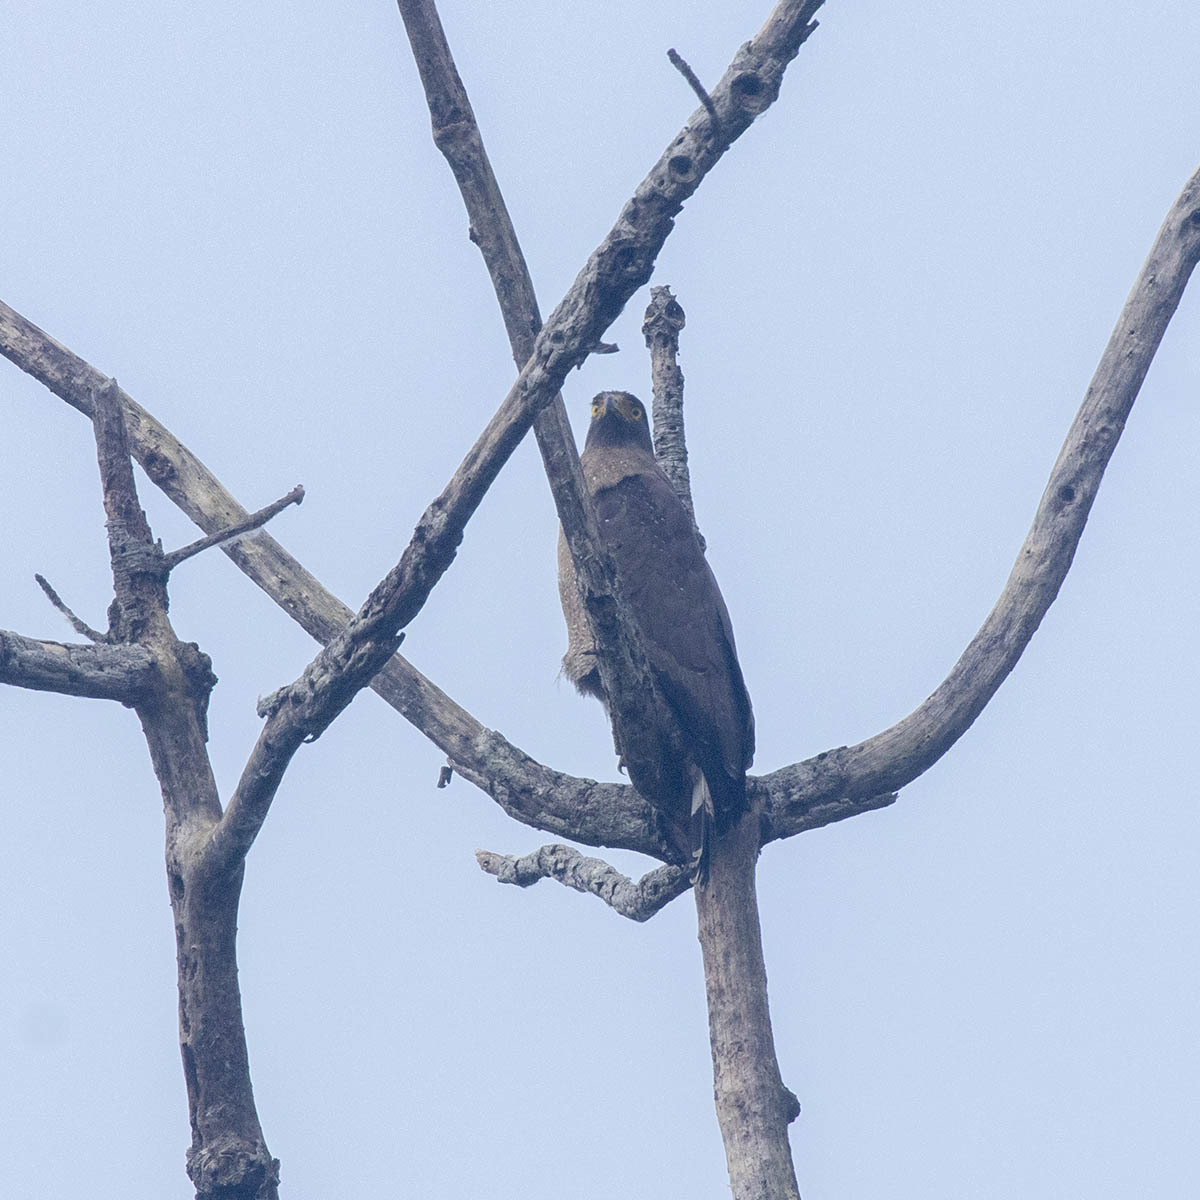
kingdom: Animalia
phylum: Chordata
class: Aves
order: Accipitriformes
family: Accipitridae
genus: Spilornis
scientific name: Spilornis cheela
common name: Crested serpent eagle
